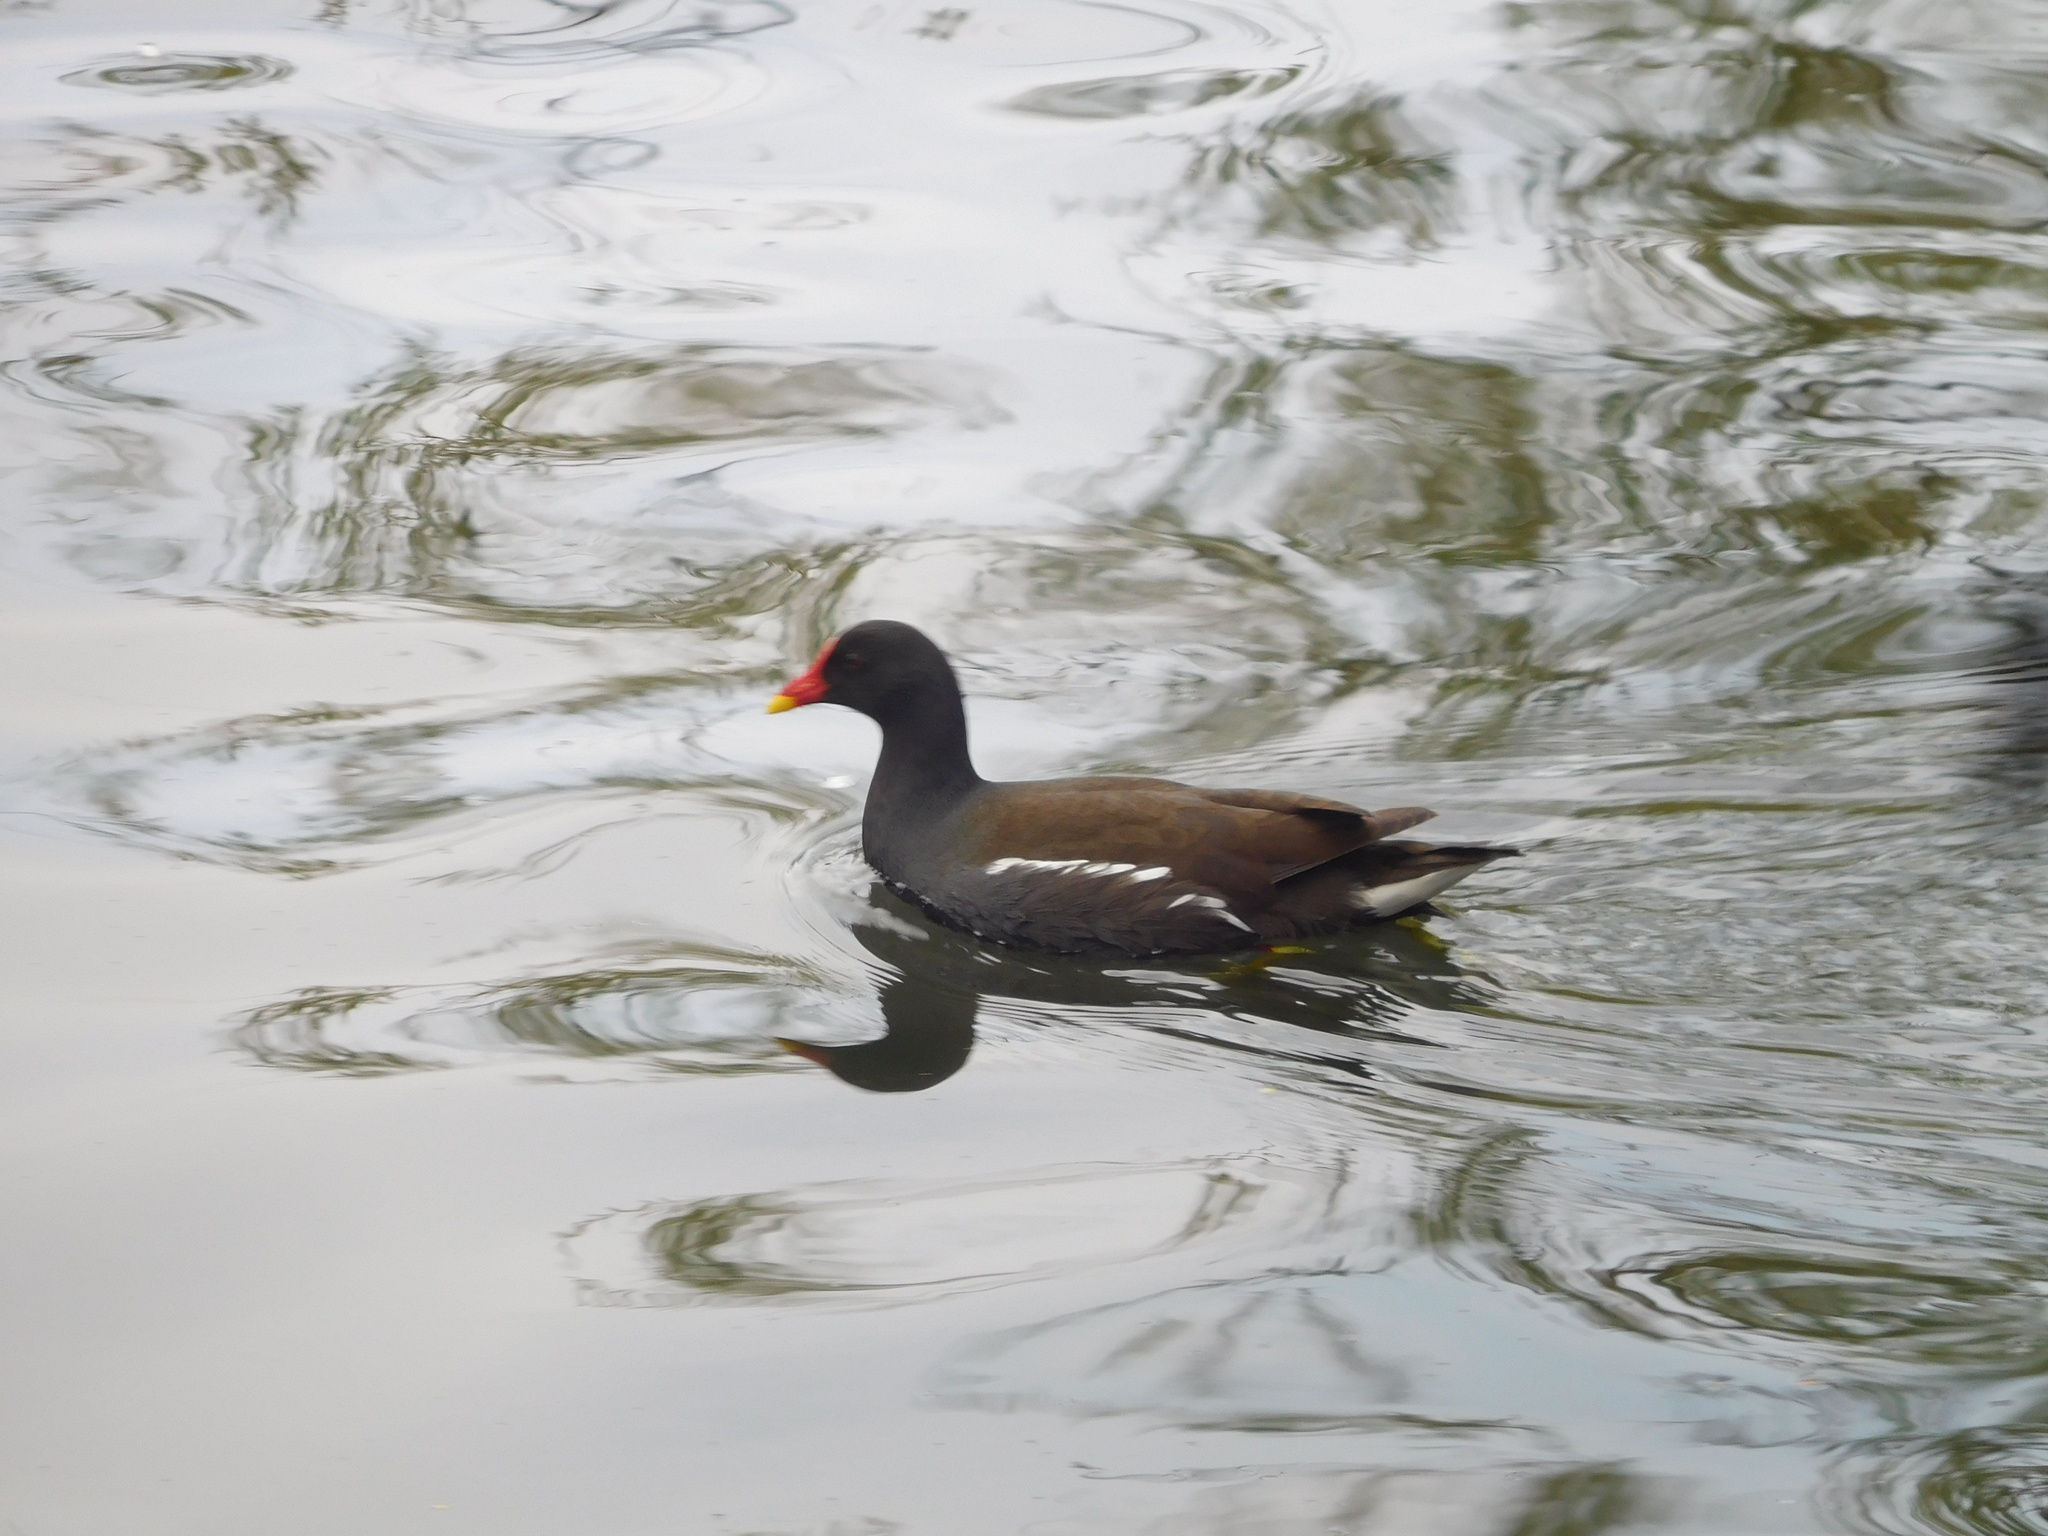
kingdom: Animalia
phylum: Chordata
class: Aves
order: Gruiformes
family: Rallidae
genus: Gallinula
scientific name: Gallinula chloropus
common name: Common moorhen
